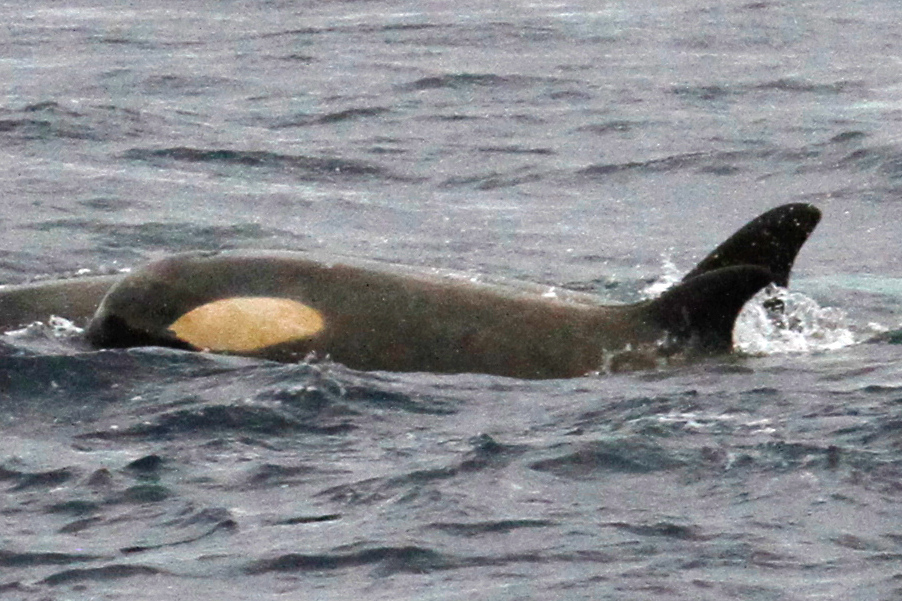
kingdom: Animalia
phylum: Chordata
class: Mammalia
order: Cetacea
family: Delphinidae
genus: Orcinus
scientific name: Orcinus orca
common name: Killer whale
